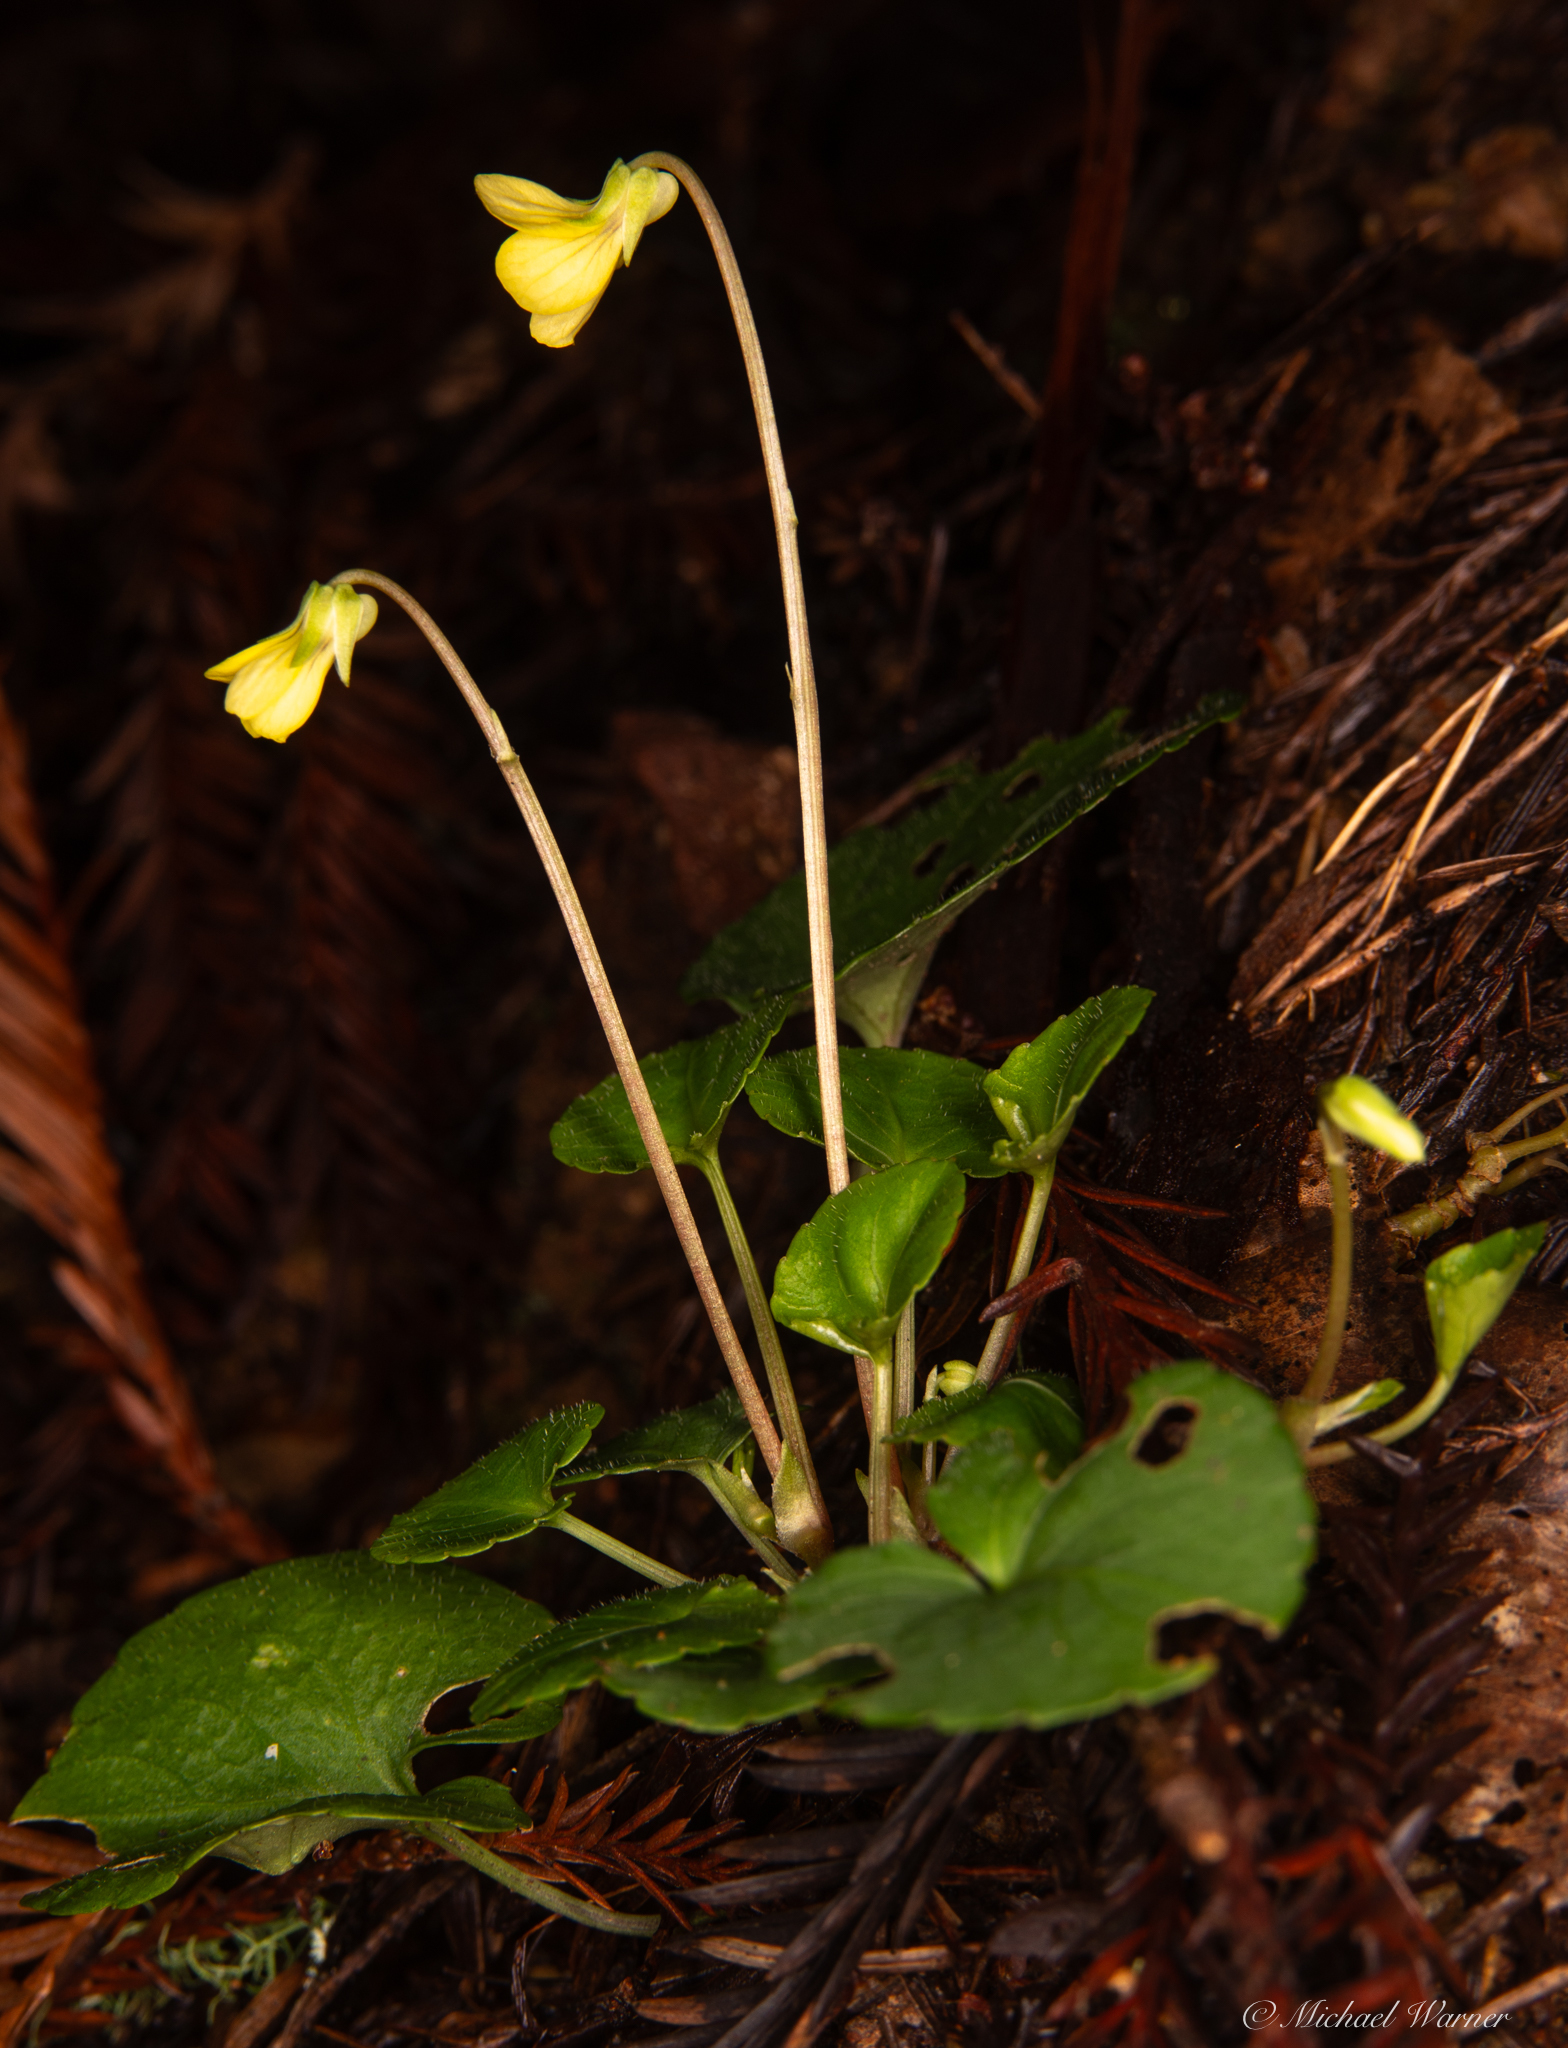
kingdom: Plantae
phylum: Tracheophyta
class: Magnoliopsida
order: Malpighiales
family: Violaceae
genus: Viola
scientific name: Viola sempervirens
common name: Evergreen violet
